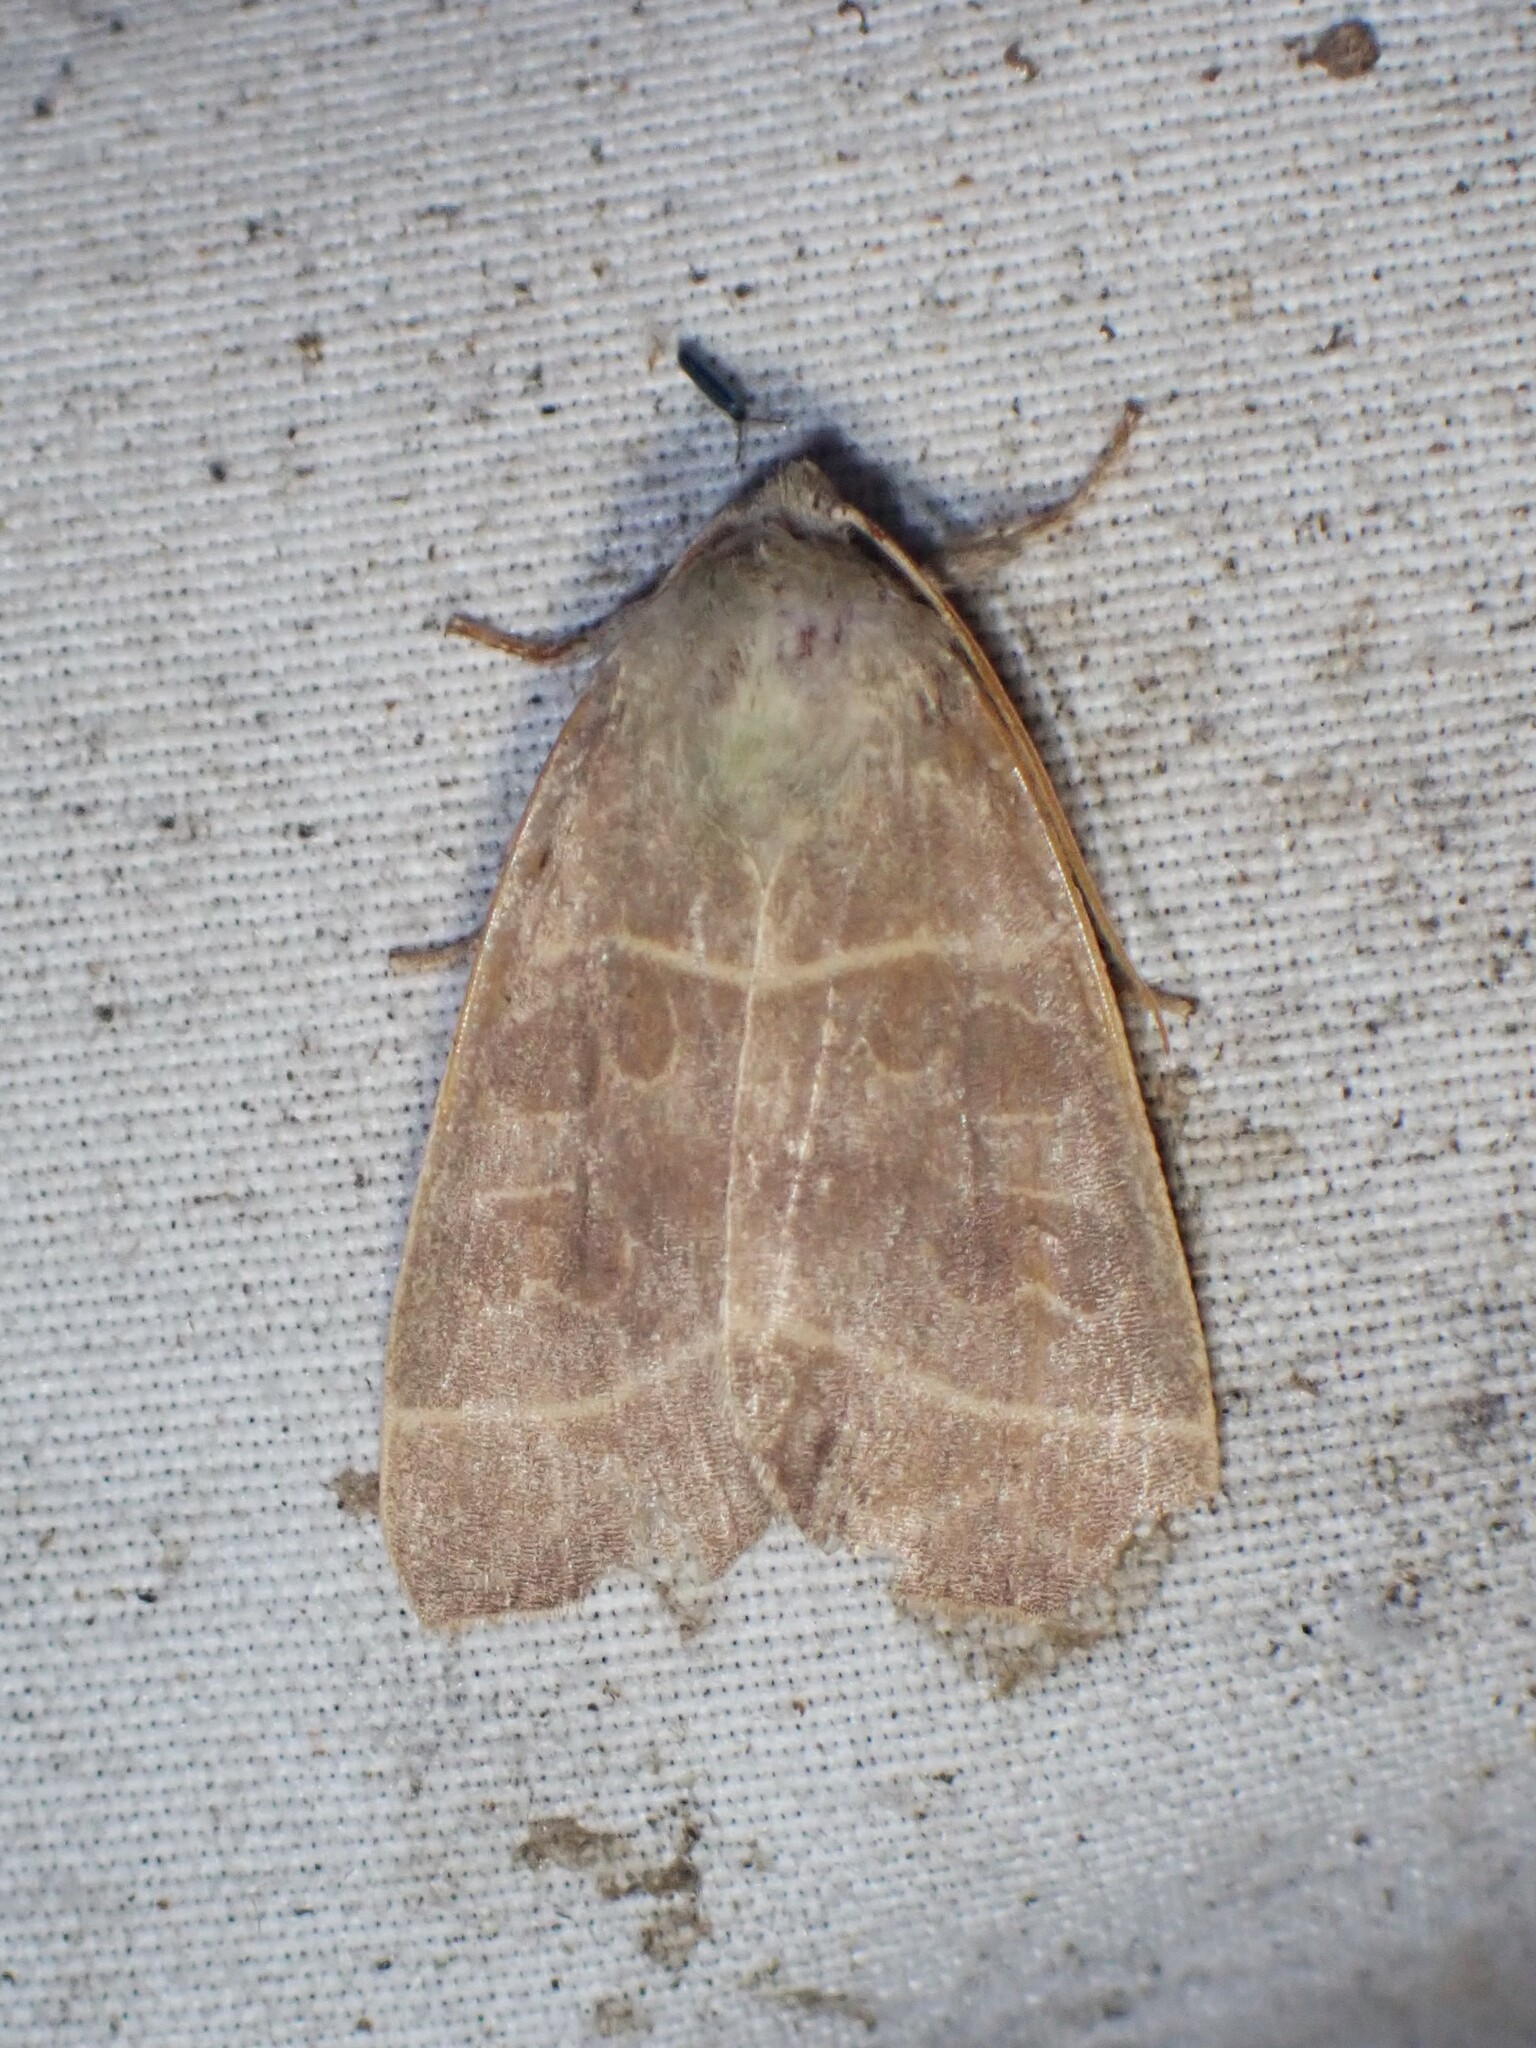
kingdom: Animalia
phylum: Arthropoda
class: Insecta
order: Lepidoptera
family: Noctuidae
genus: Ipimorpha
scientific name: Ipimorpha pleonectusa
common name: Even-lined sallow
